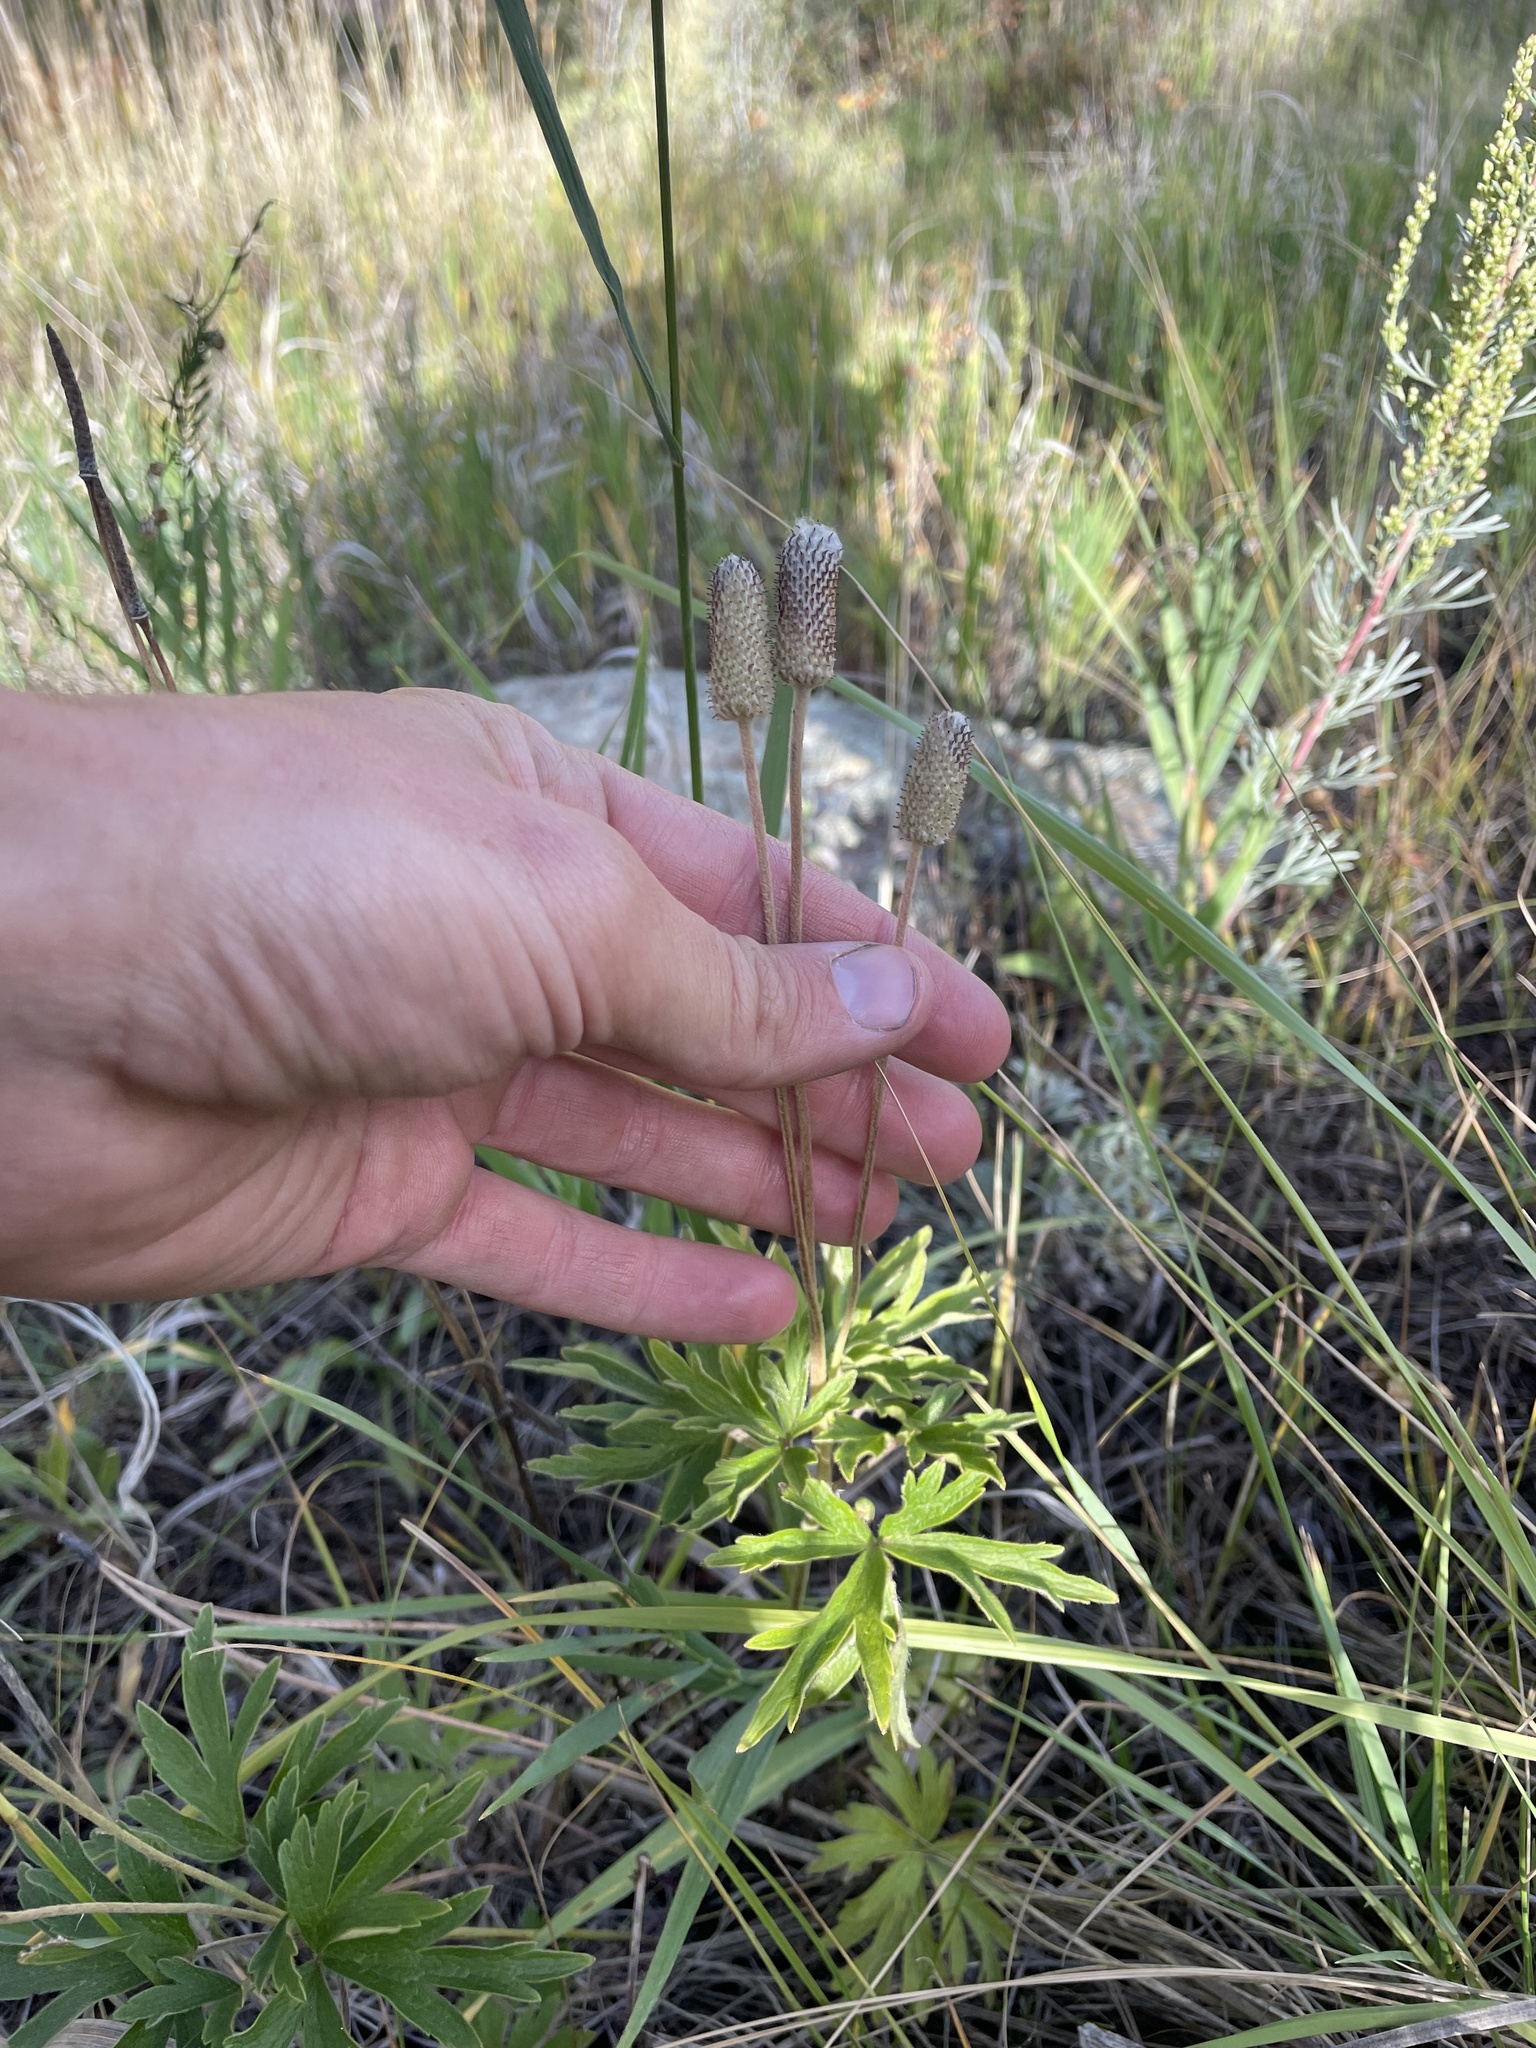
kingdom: Plantae
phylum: Tracheophyta
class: Magnoliopsida
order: Ranunculales
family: Ranunculaceae
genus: Anemone
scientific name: Anemone cylindrica
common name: Candle anemone
